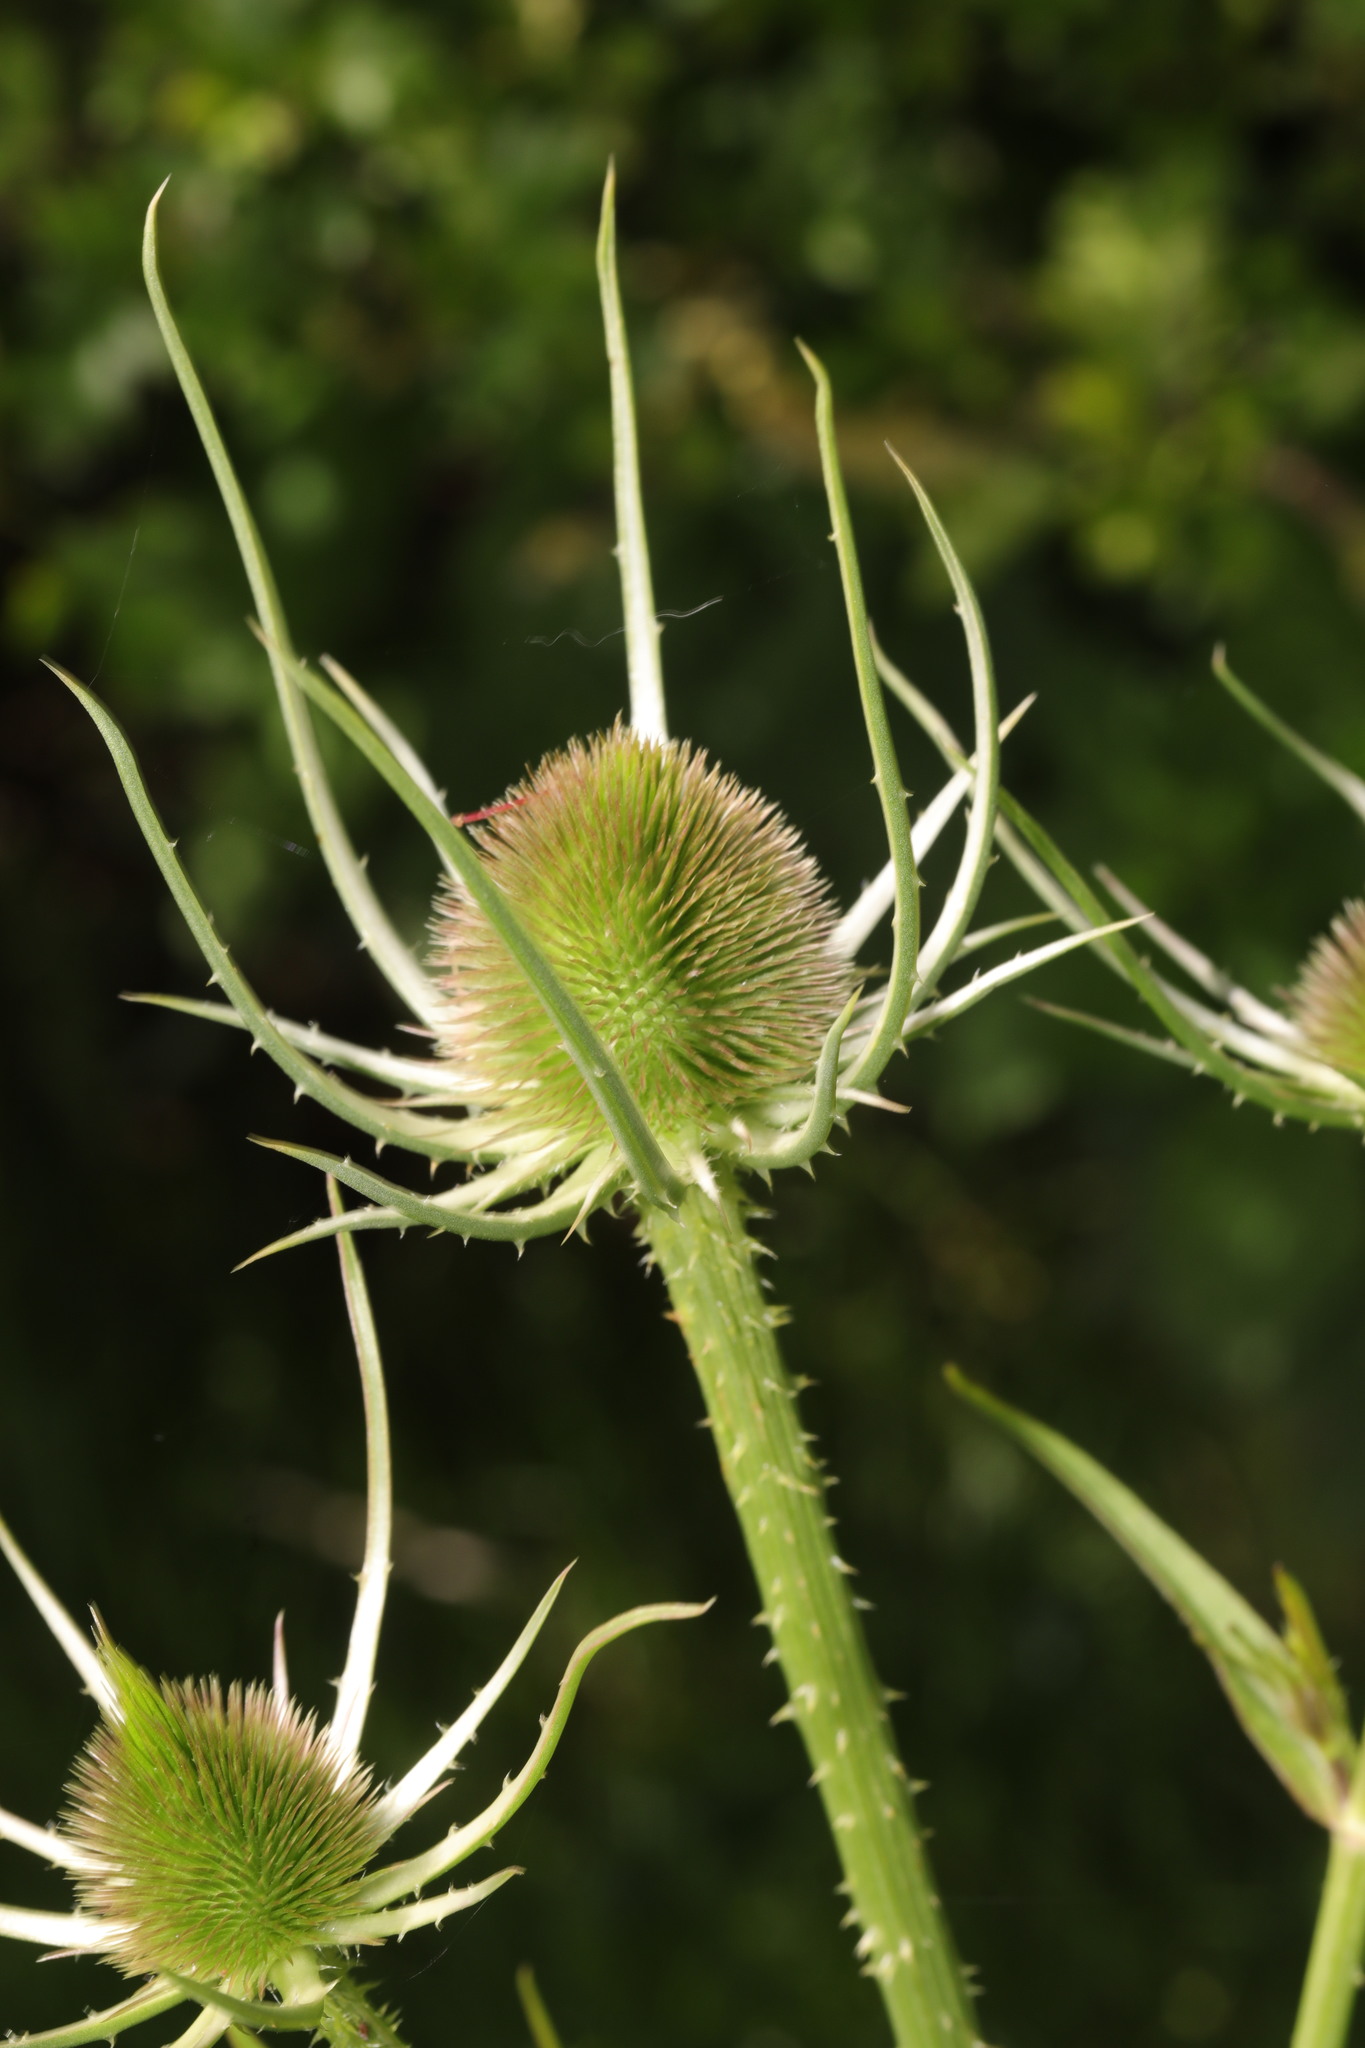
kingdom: Plantae
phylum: Tracheophyta
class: Magnoliopsida
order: Dipsacales
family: Caprifoliaceae
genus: Dipsacus
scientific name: Dipsacus fullonum
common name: Teasel
